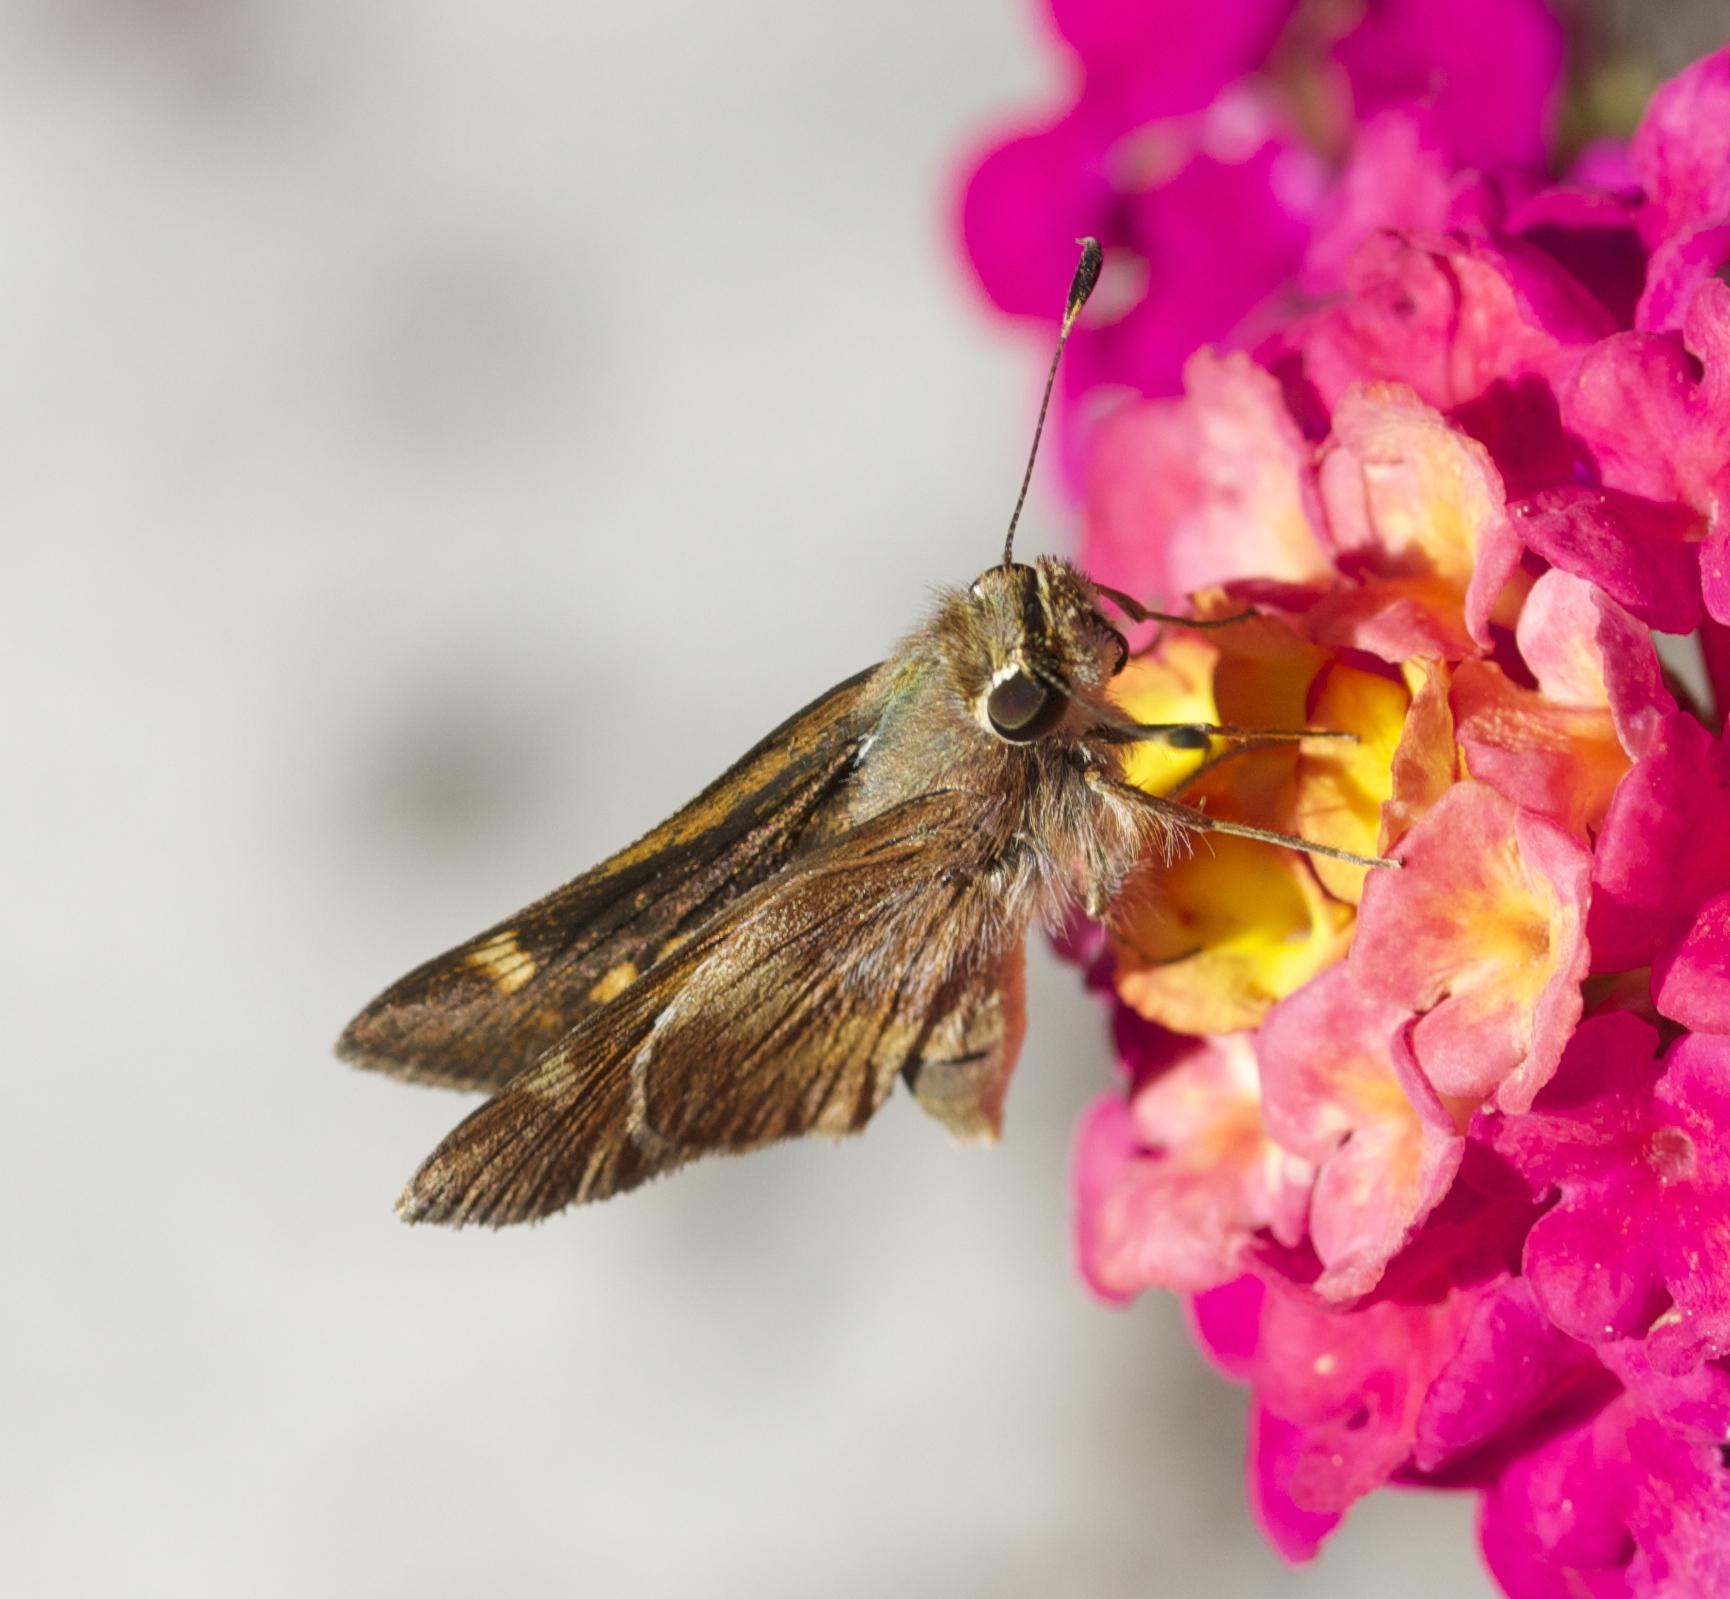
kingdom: Animalia
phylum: Arthropoda
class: Insecta
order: Lepidoptera
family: Hesperiidae
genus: Lon
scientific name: Lon melane
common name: Umber skipper
